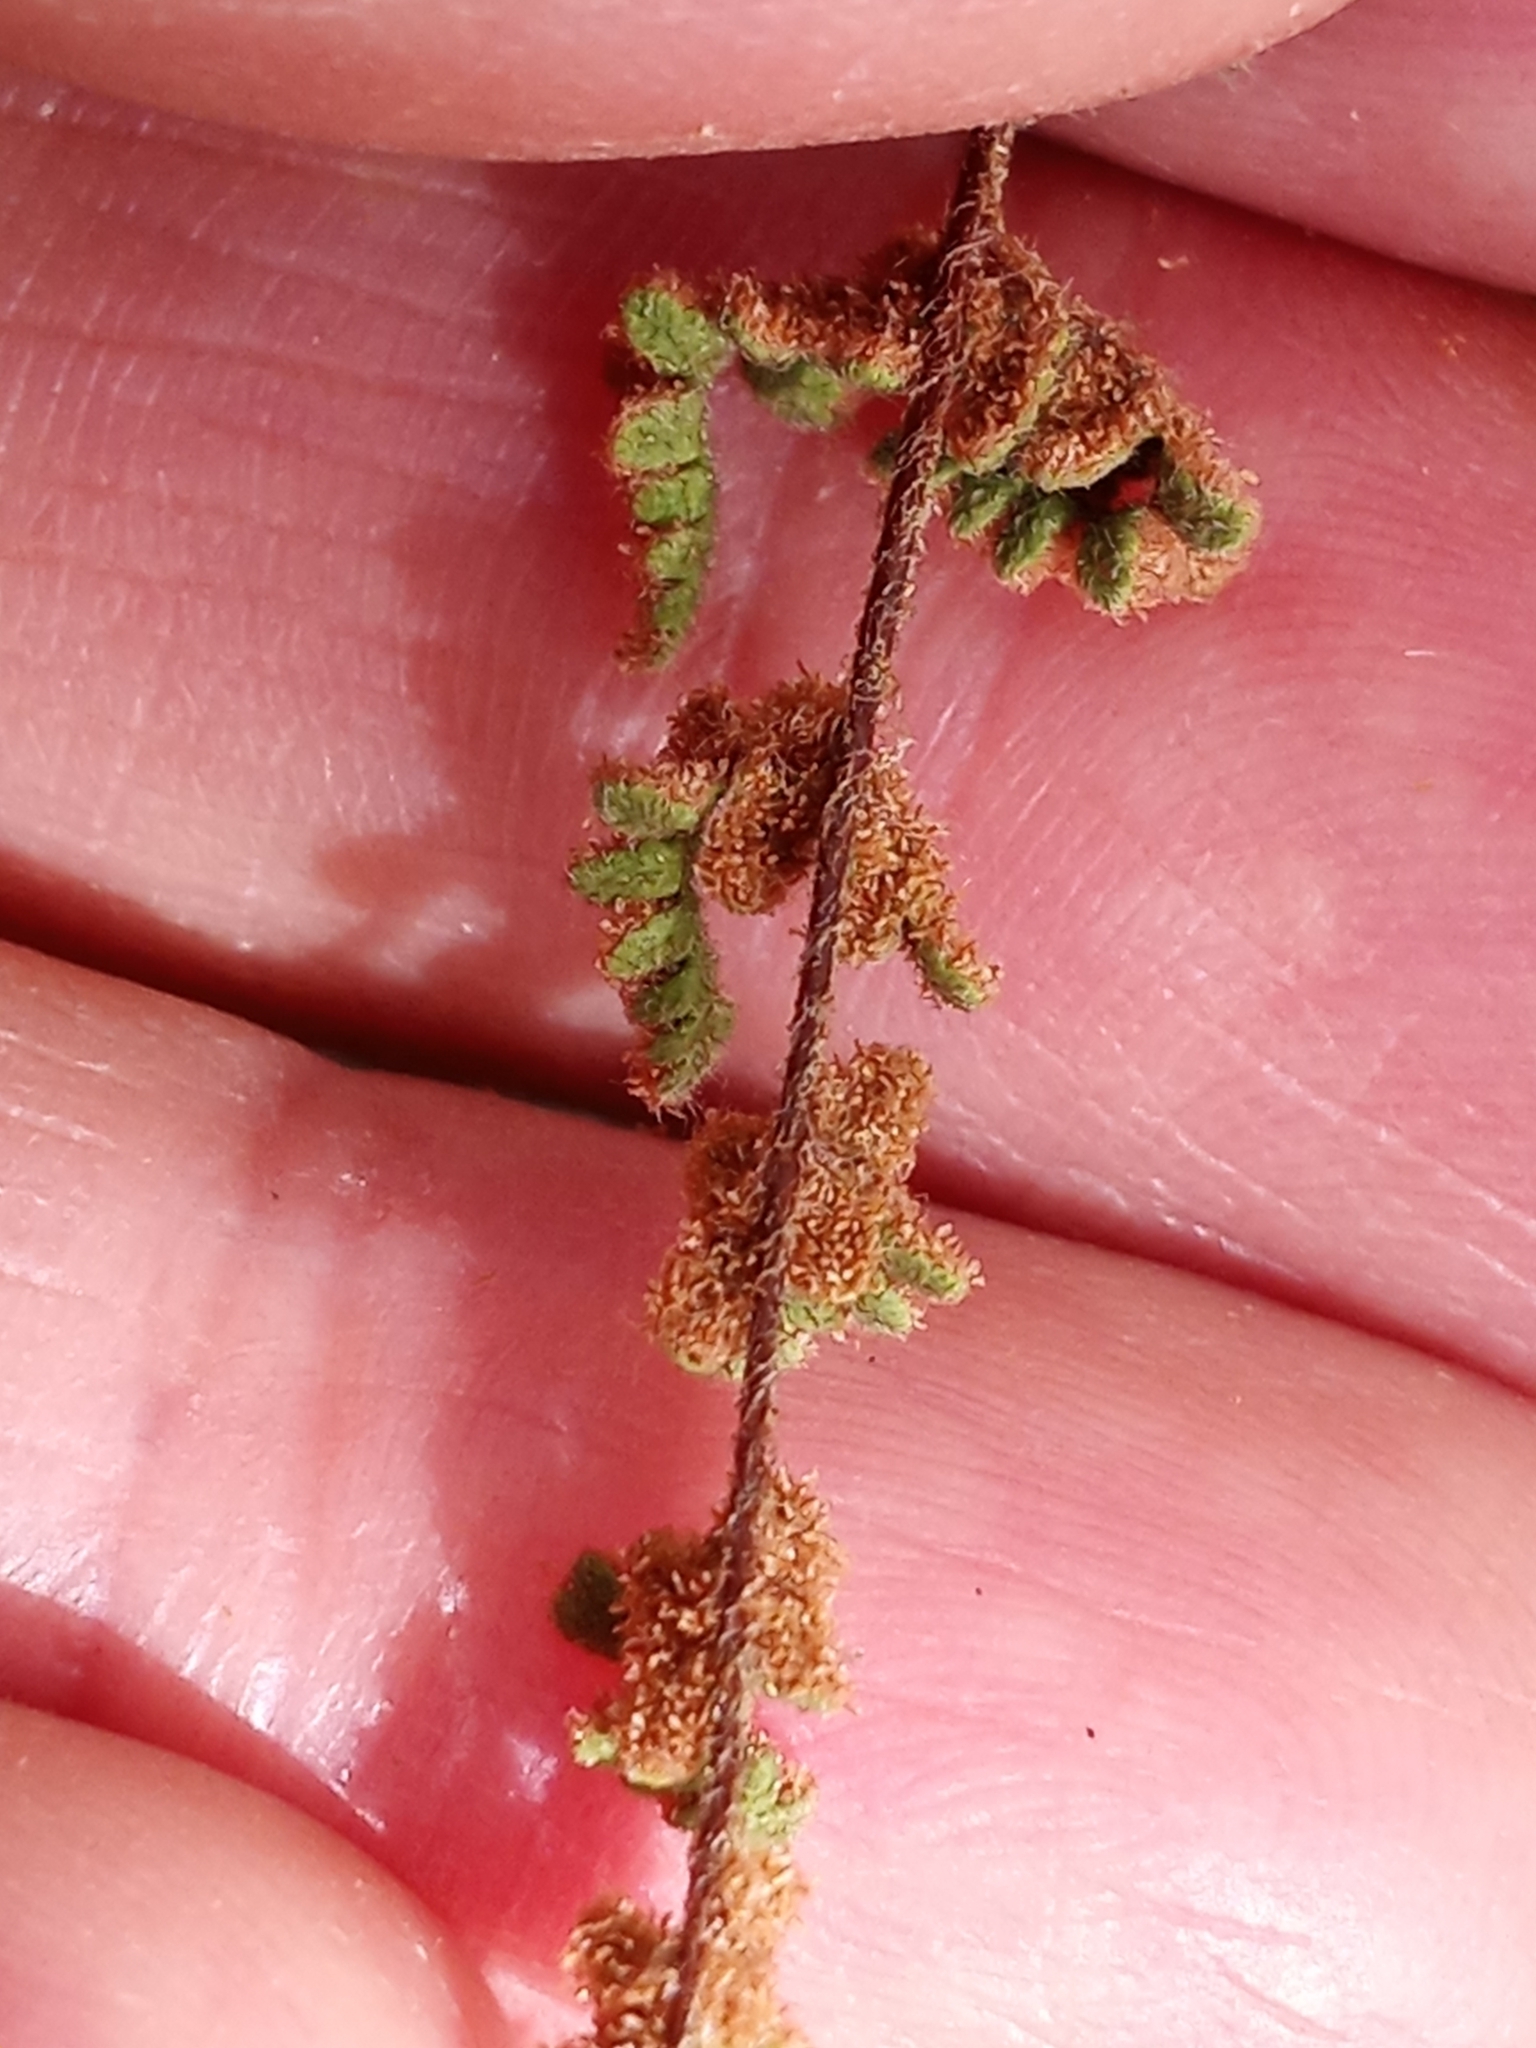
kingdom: Plantae
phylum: Tracheophyta
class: Polypodiopsida
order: Polypodiales
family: Pteridaceae
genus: Myriopteris
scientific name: Myriopteris lanosa
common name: Hairy lip fern
